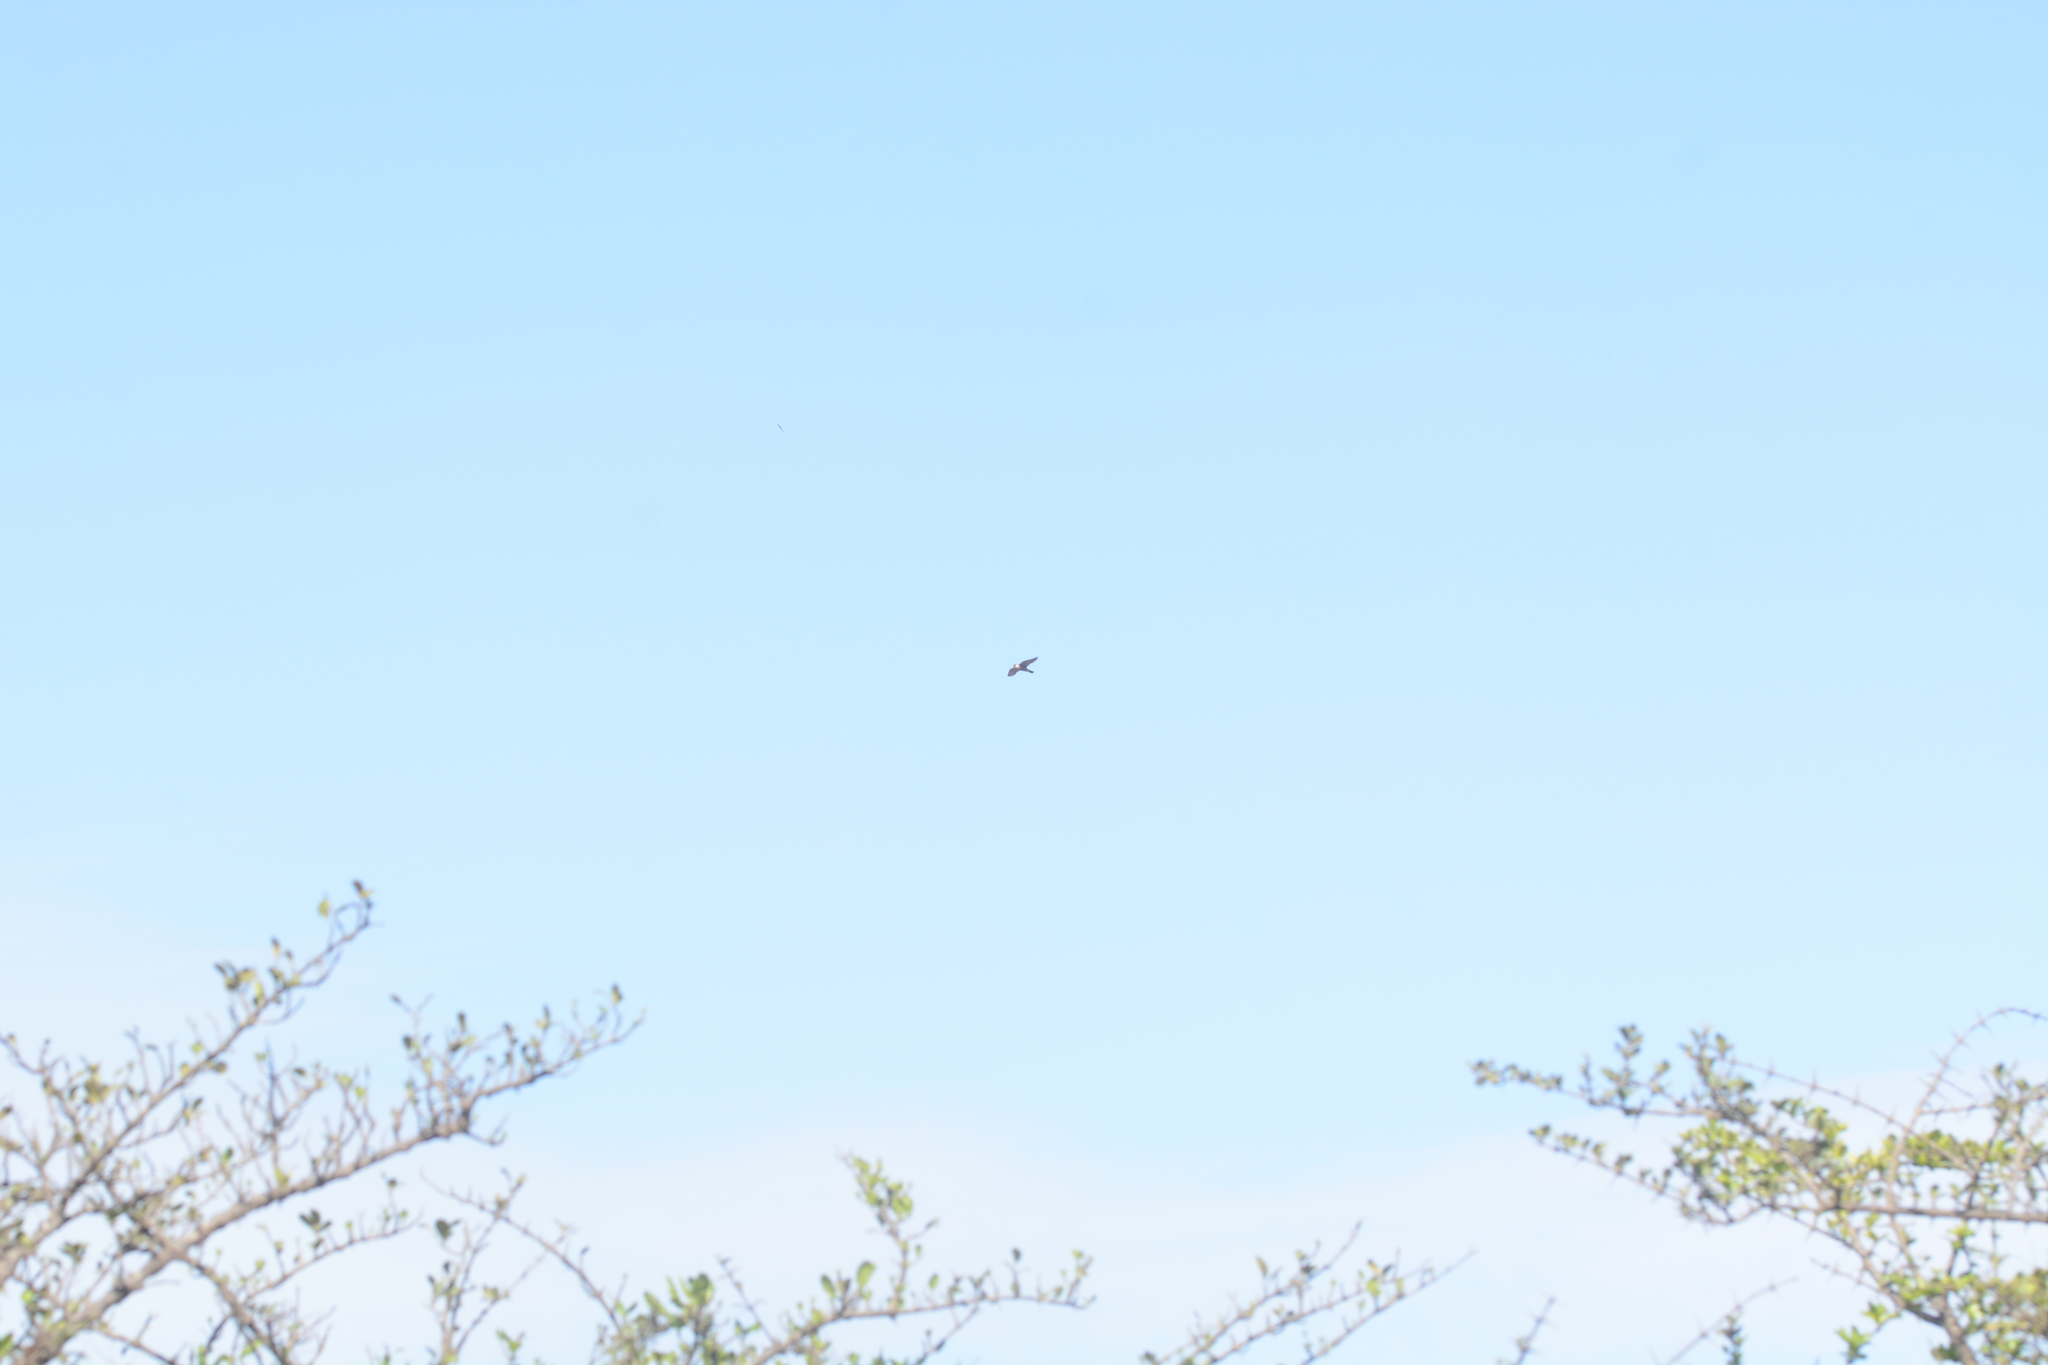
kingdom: Animalia
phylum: Chordata
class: Aves
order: Falconiformes
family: Falconidae
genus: Falco
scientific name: Falco peregrinus
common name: Peregrine falcon
